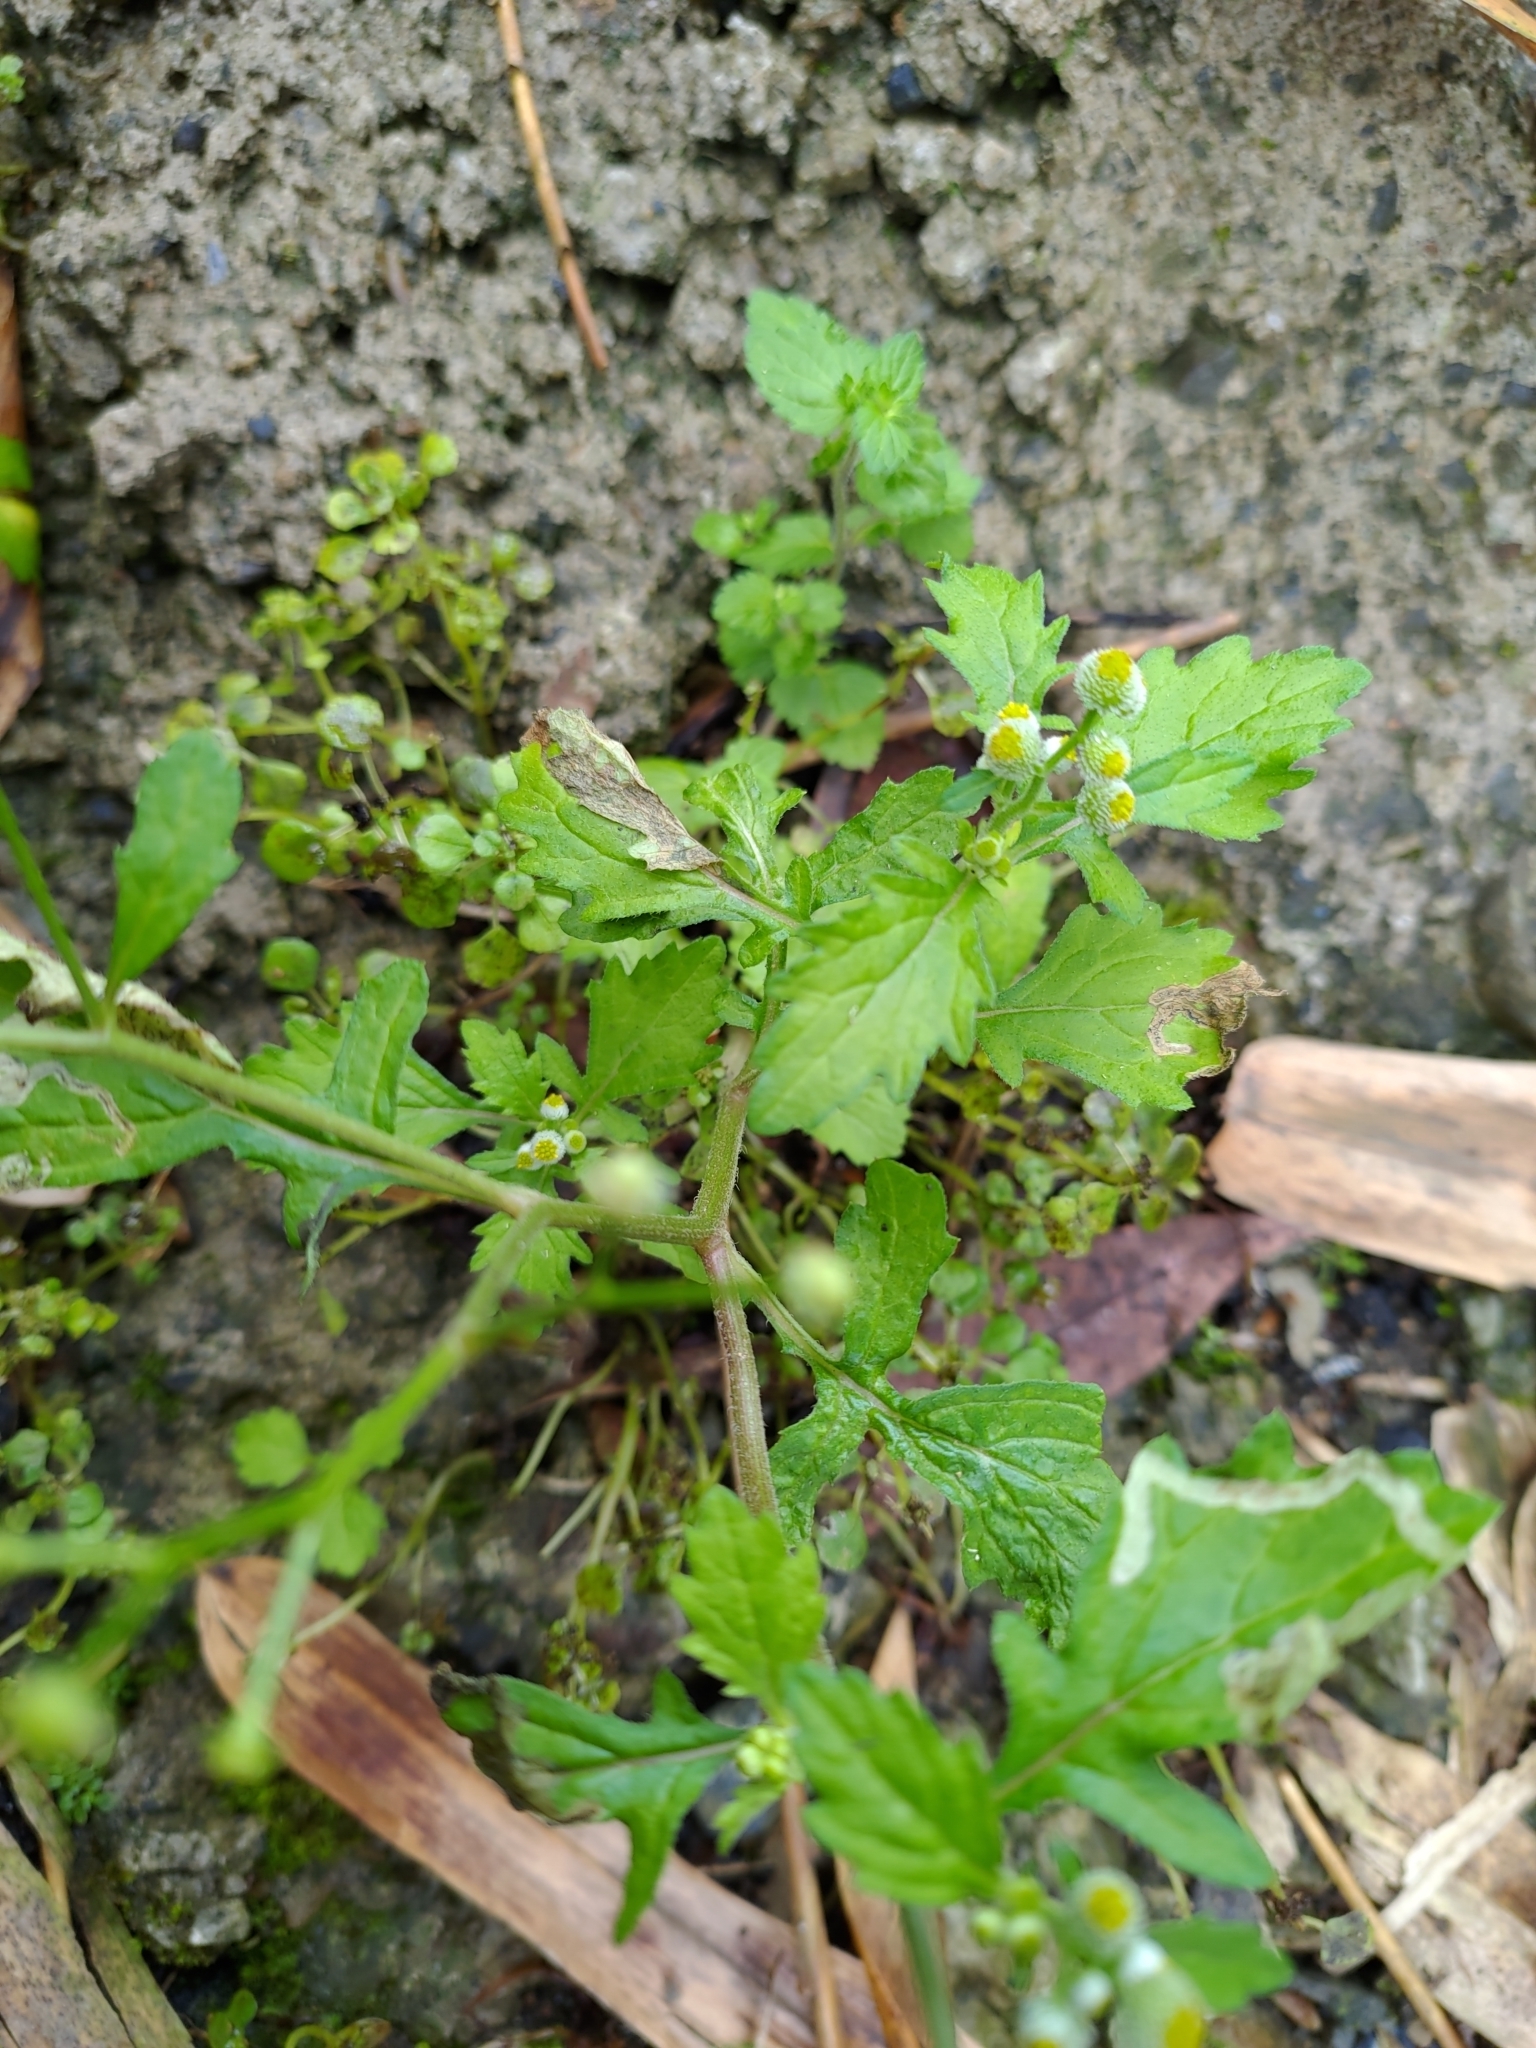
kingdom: Plantae
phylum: Tracheophyta
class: Magnoliopsida
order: Asterales
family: Asteraceae
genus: Dichrocephala
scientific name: Dichrocephala integrifolia
